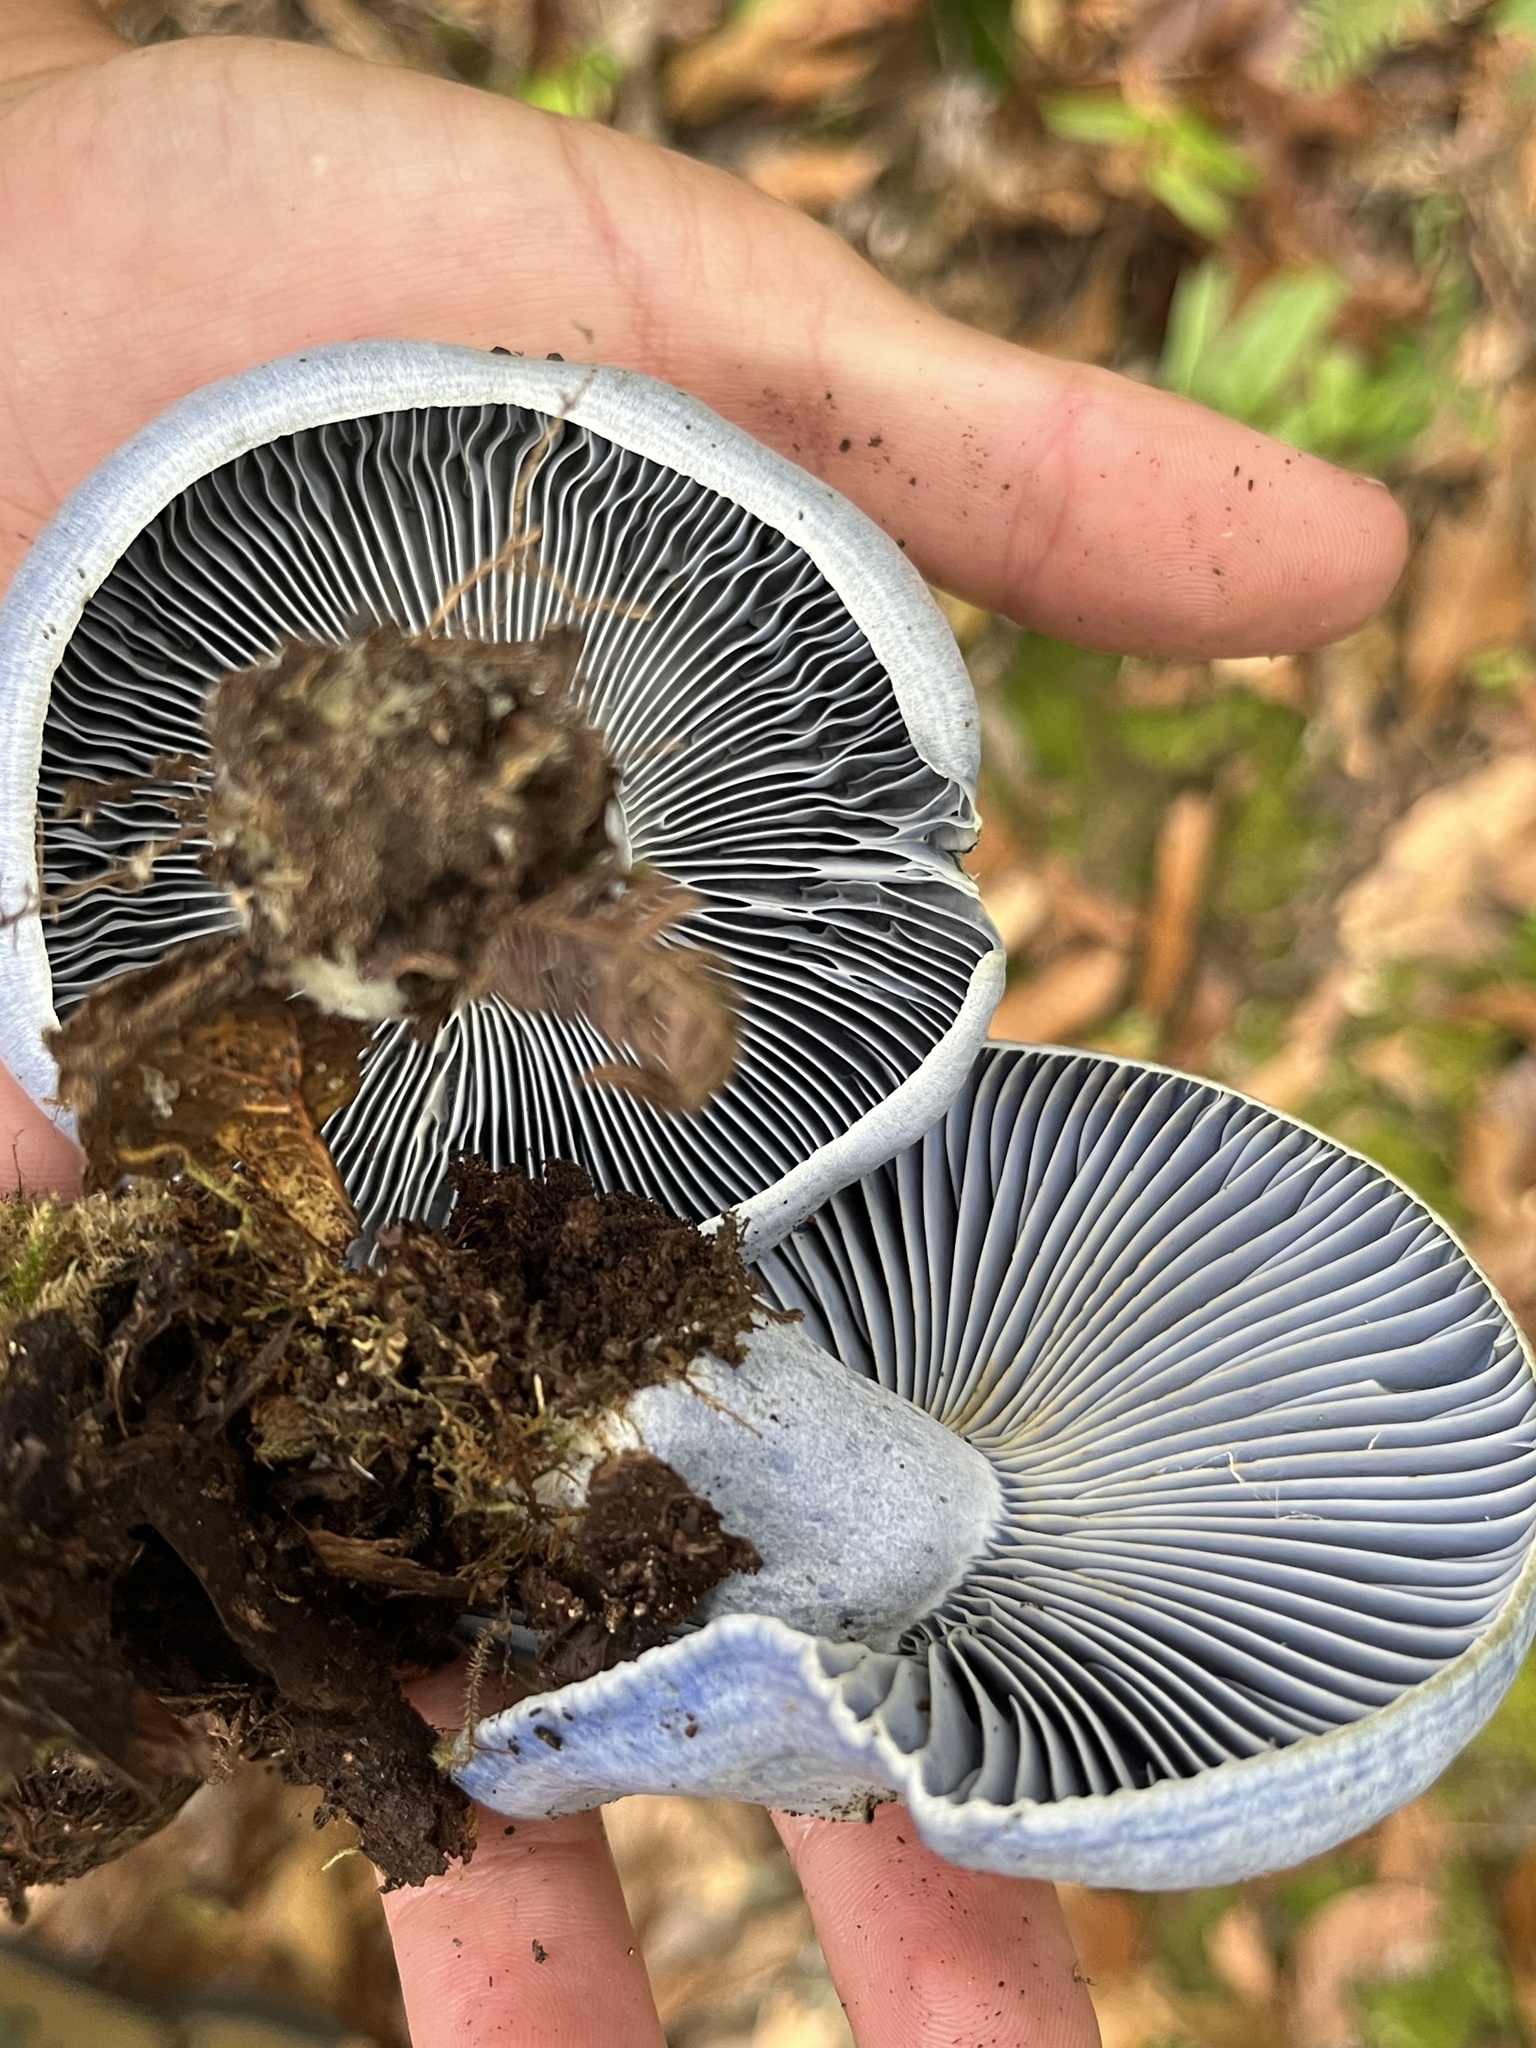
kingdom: Fungi
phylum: Basidiomycota
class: Agaricomycetes
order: Russulales
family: Russulaceae
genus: Lactarius
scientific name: Lactarius indigo
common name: Indigo milk cap
